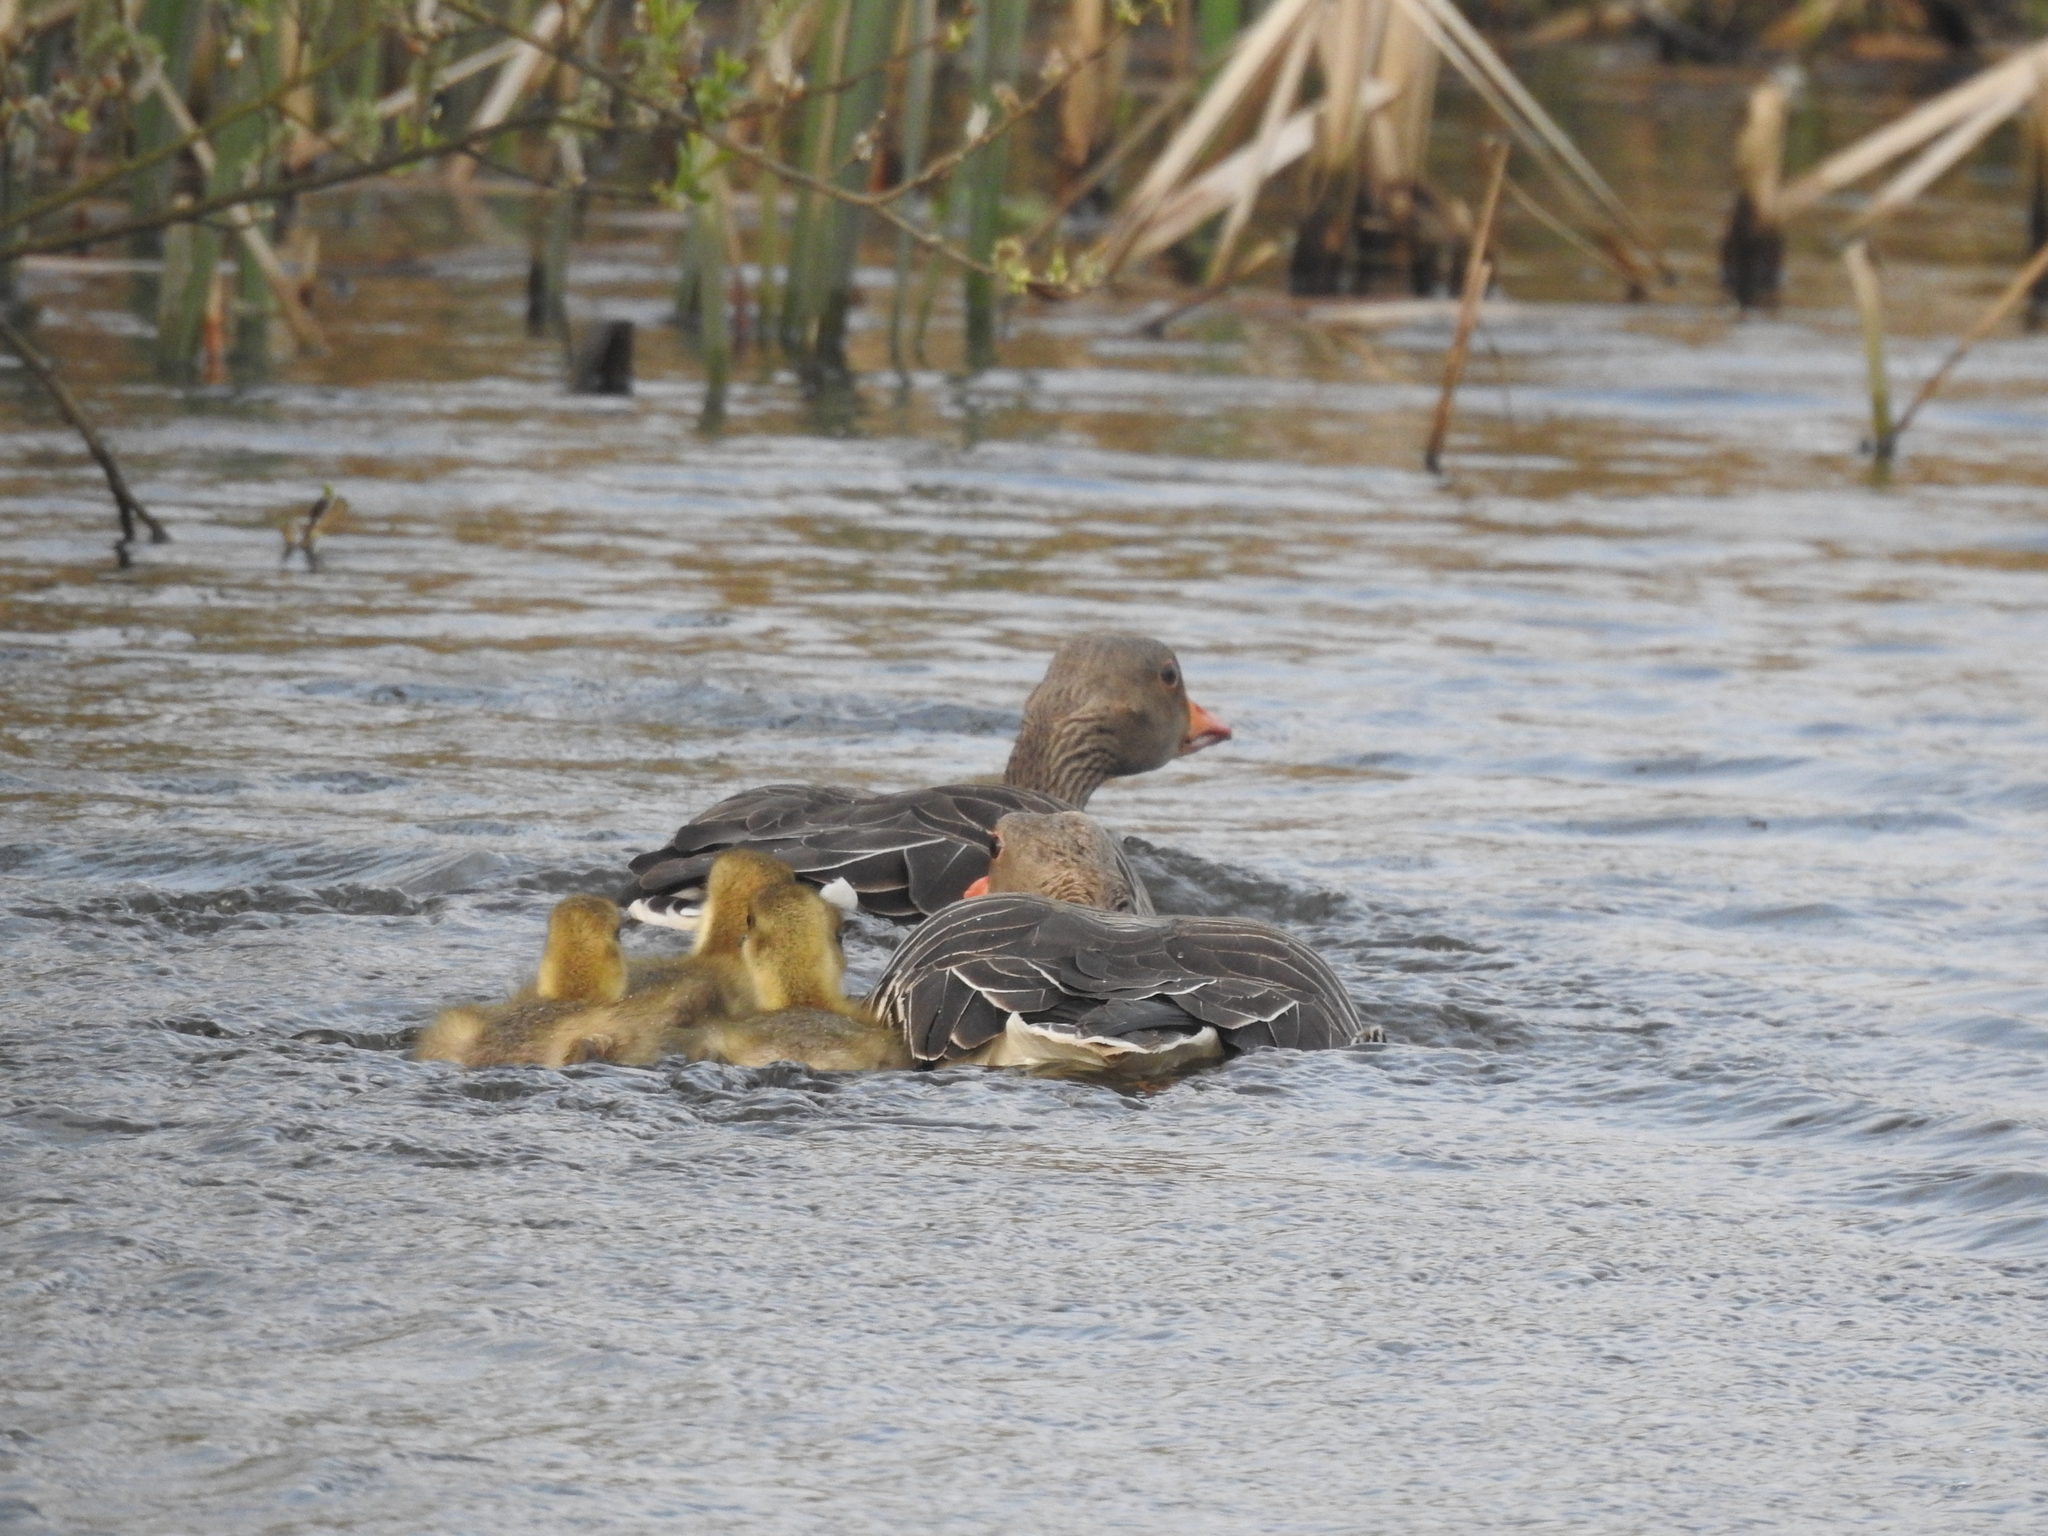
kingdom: Animalia
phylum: Chordata
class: Aves
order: Anseriformes
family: Anatidae
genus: Anser
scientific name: Anser anser
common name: Greylag goose
